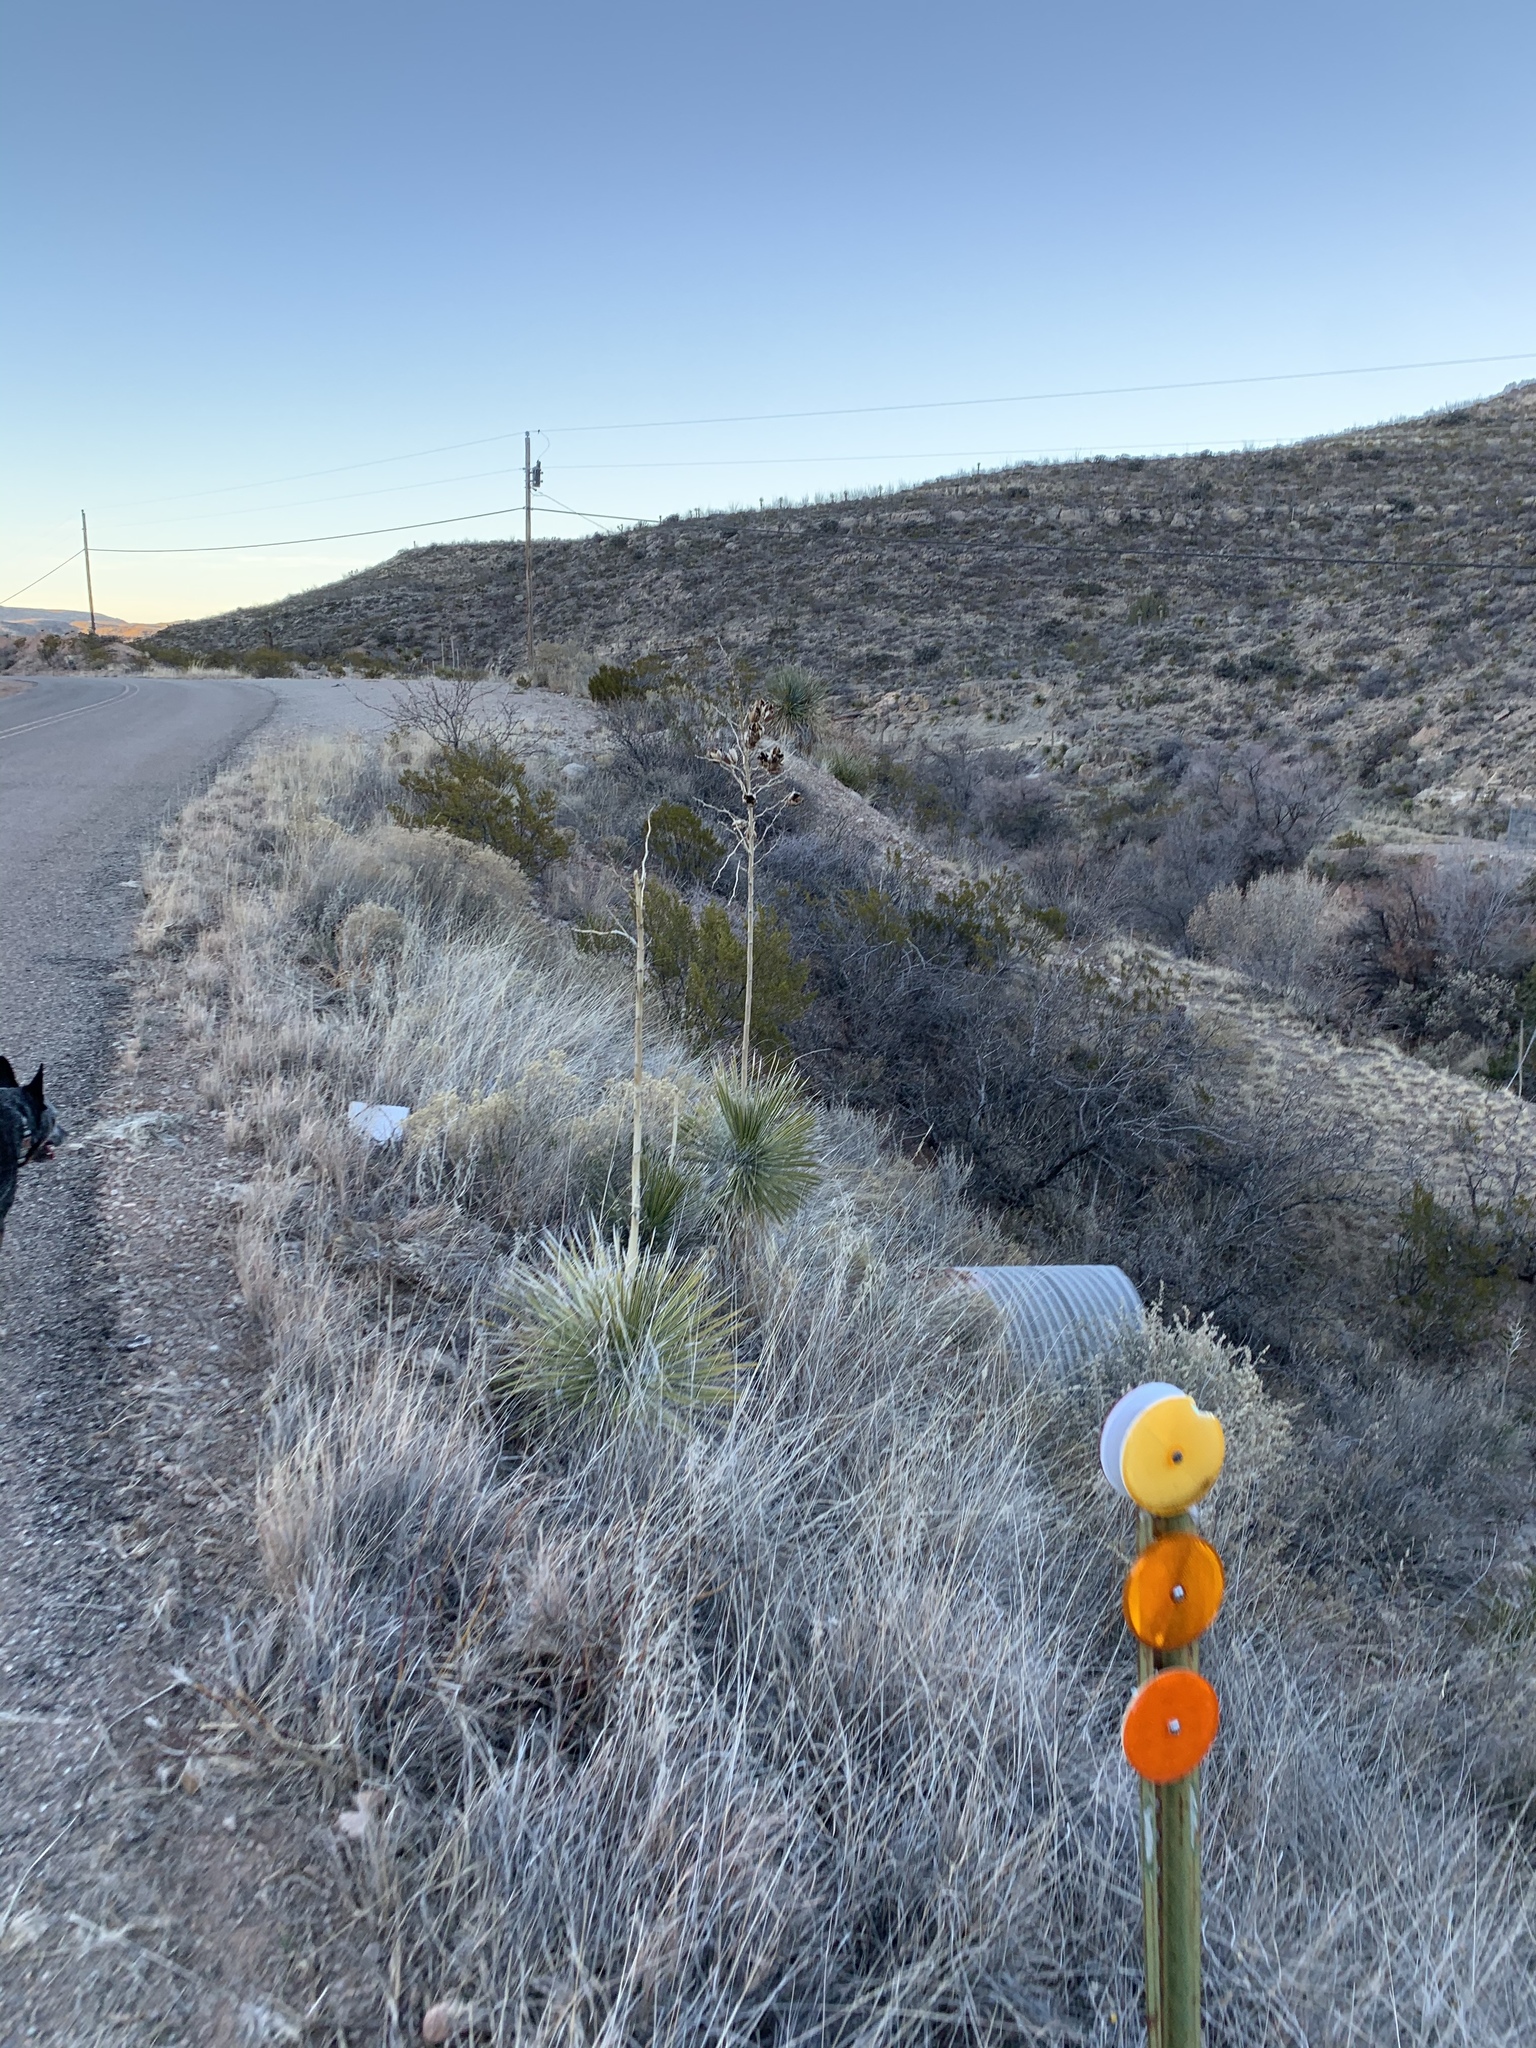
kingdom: Plantae
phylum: Tracheophyta
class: Liliopsida
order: Asparagales
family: Asparagaceae
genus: Yucca
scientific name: Yucca elata
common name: Palmella
